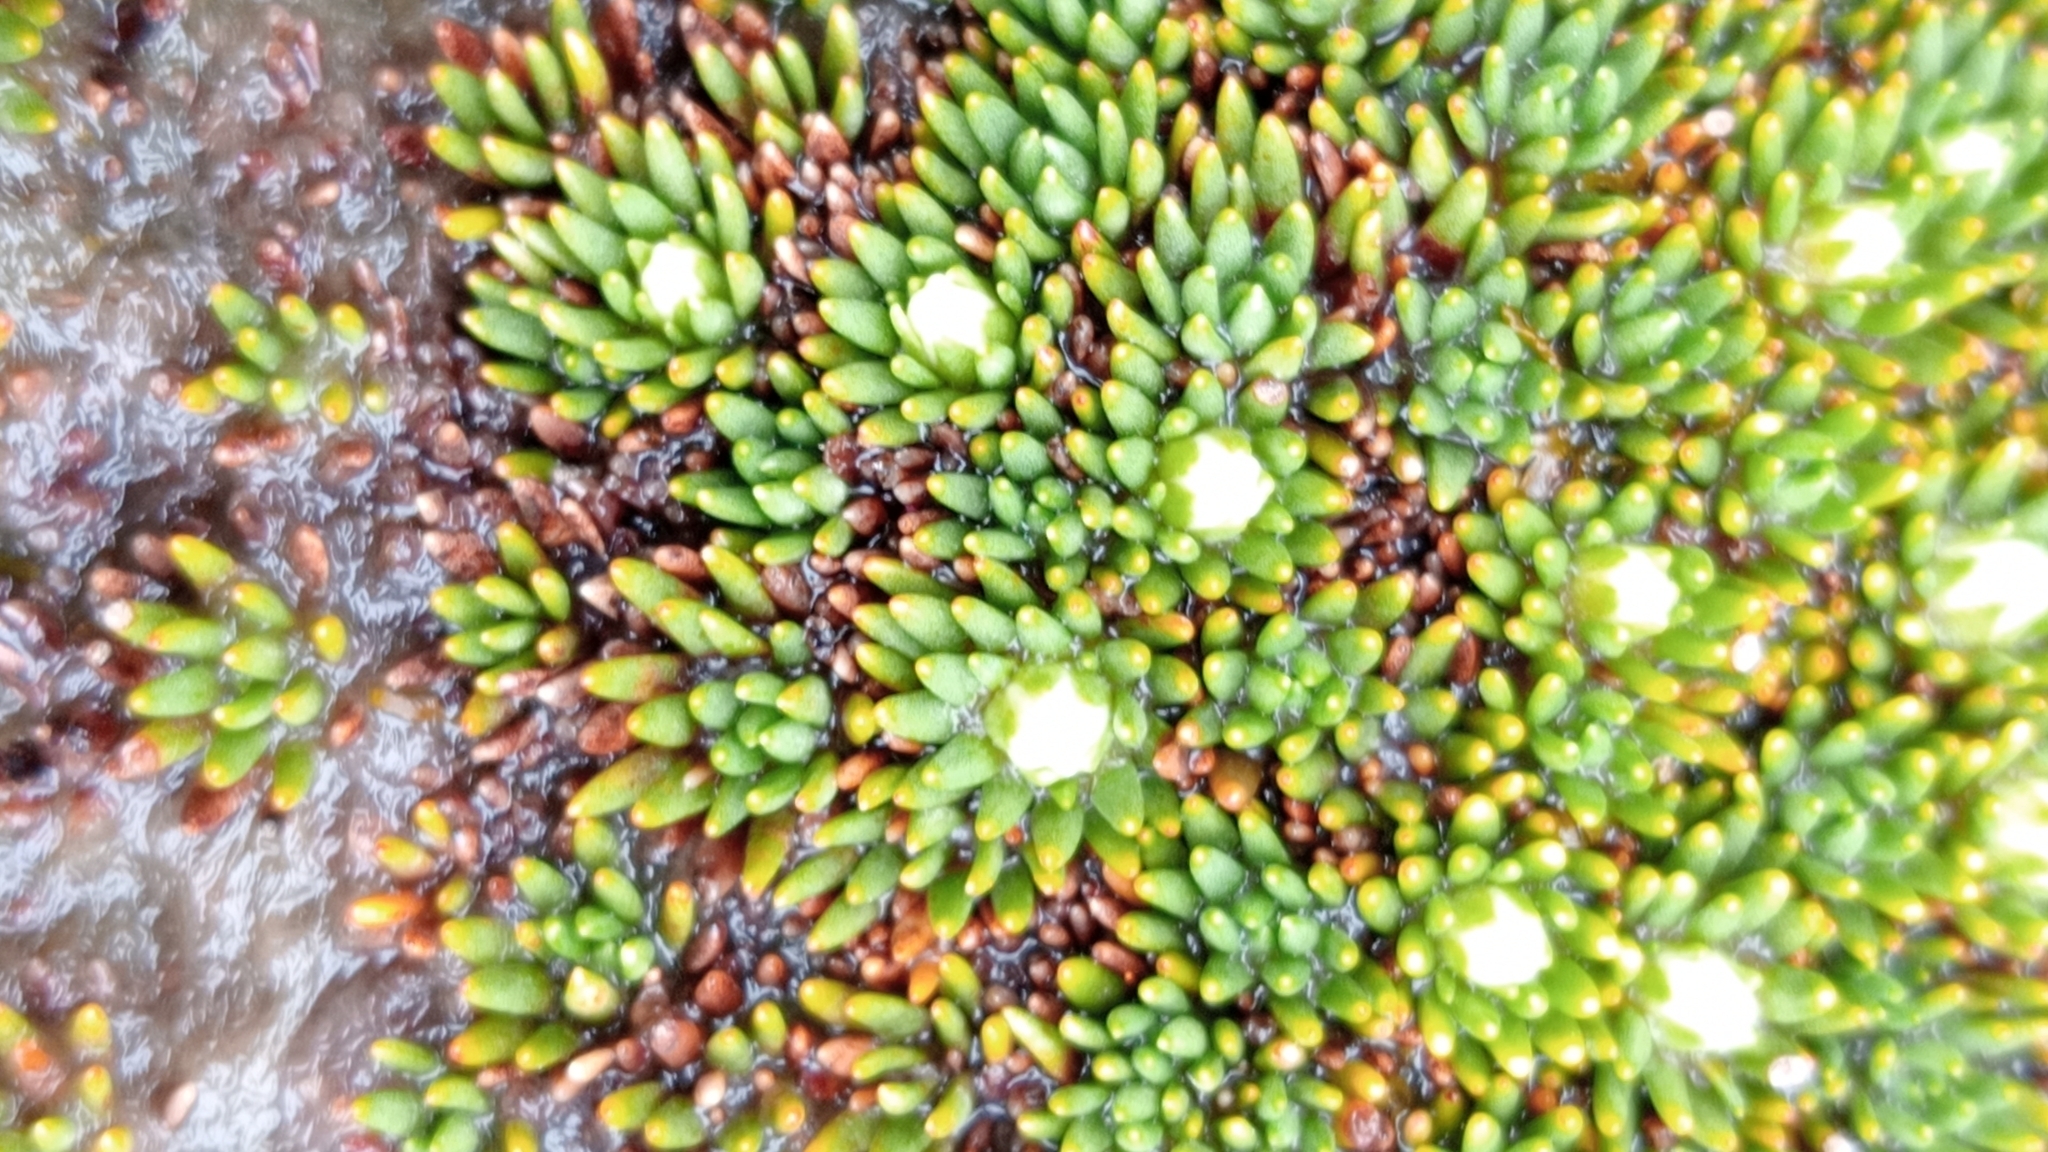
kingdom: Plantae
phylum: Tracheophyta
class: Magnoliopsida
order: Asterales
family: Stylidiaceae
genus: Donatia
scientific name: Donatia novae-zelandiae
